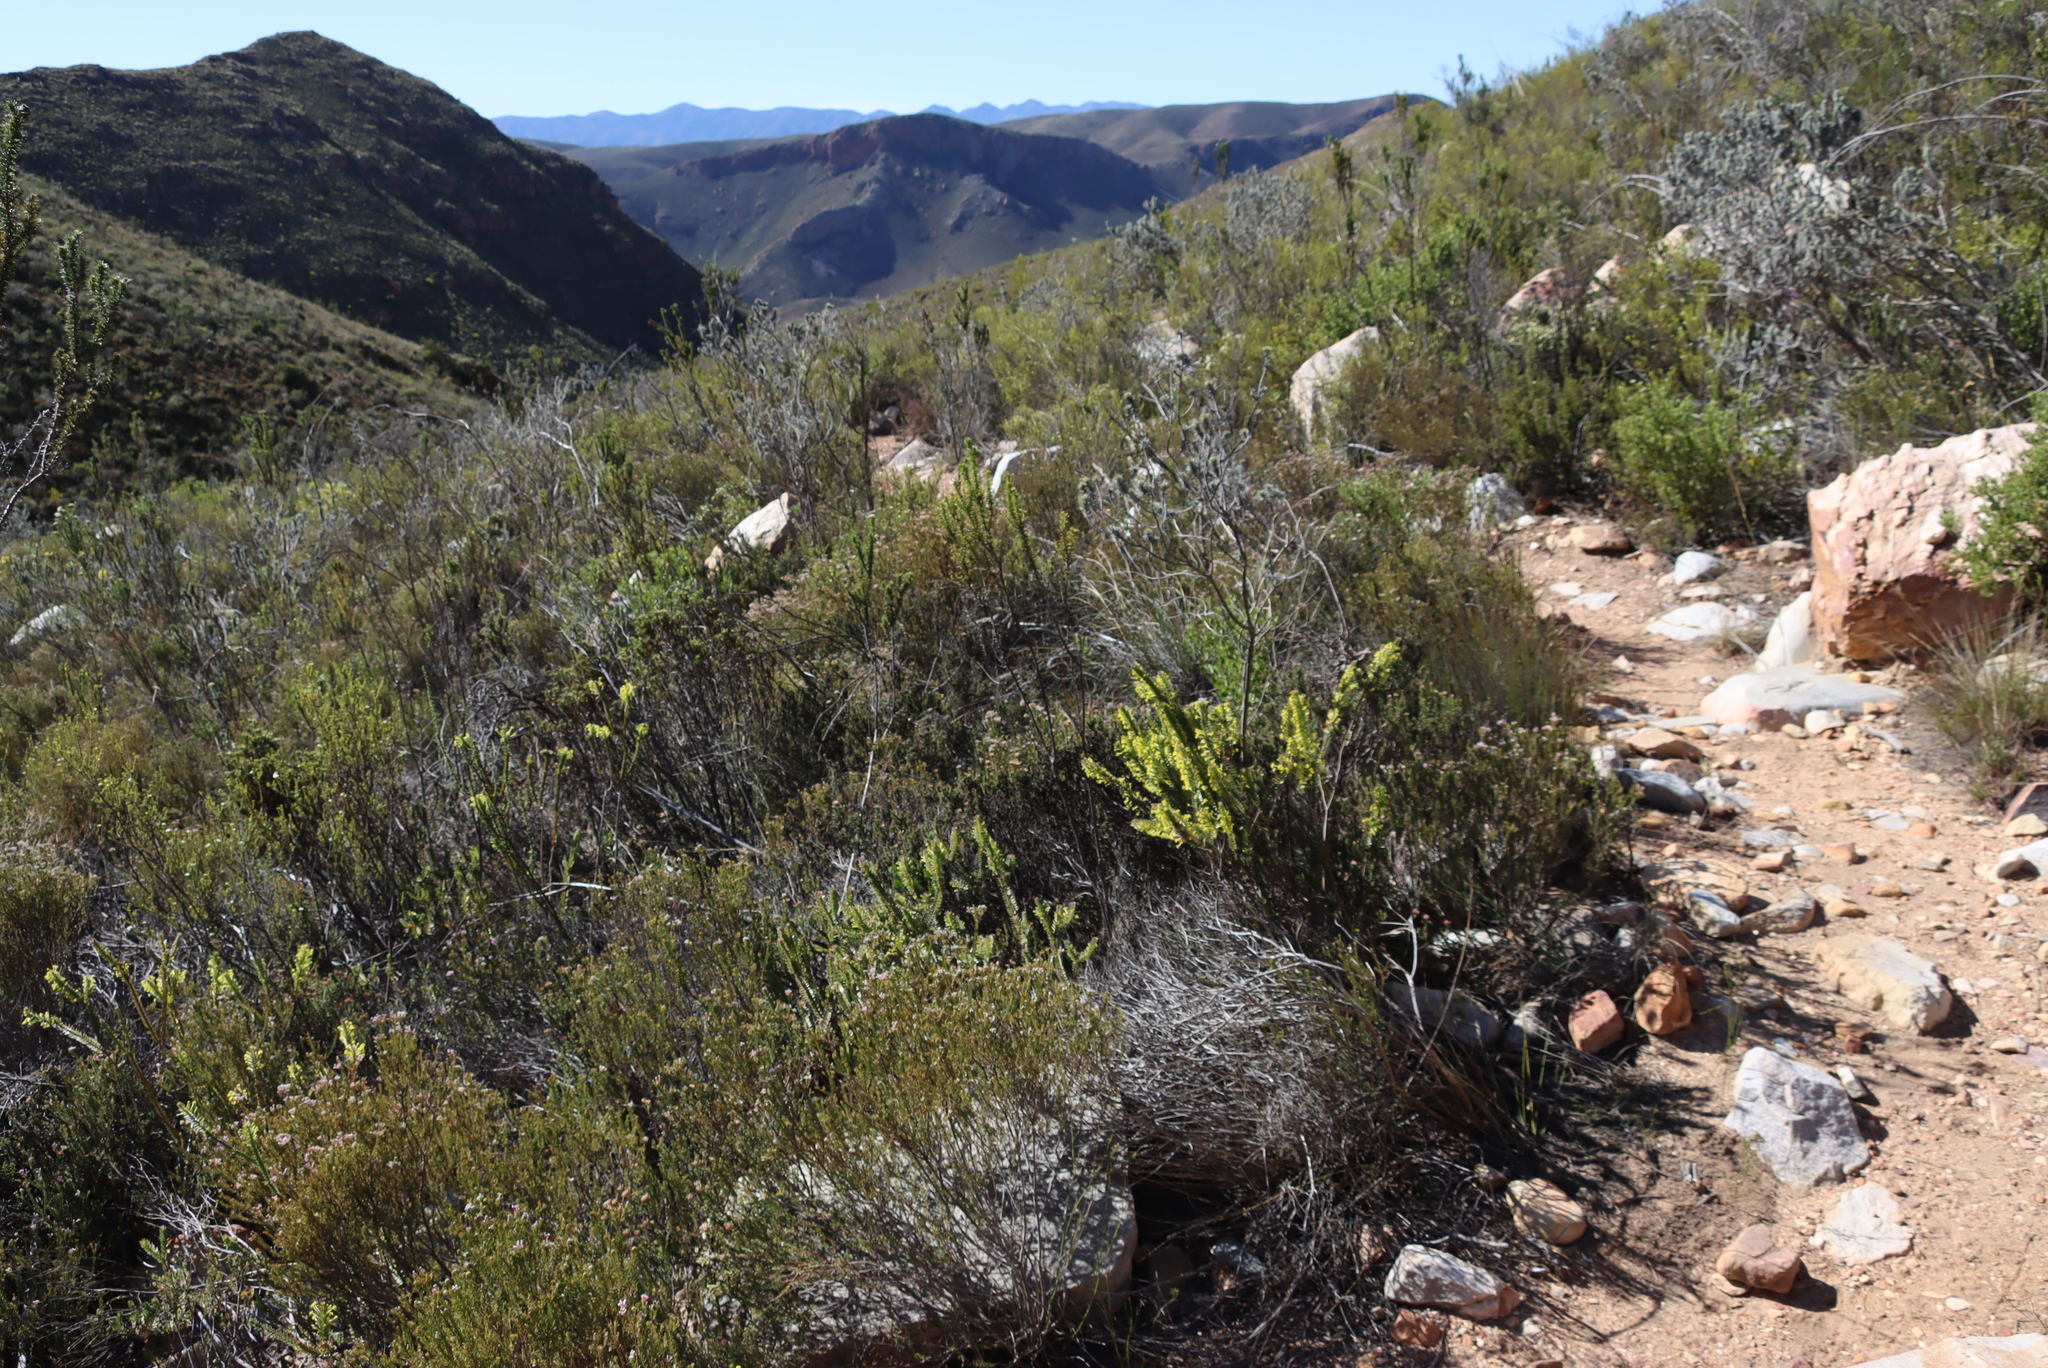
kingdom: Plantae
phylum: Tracheophyta
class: Magnoliopsida
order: Malvales
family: Thymelaeaceae
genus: Struthiola
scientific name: Struthiola argentea
